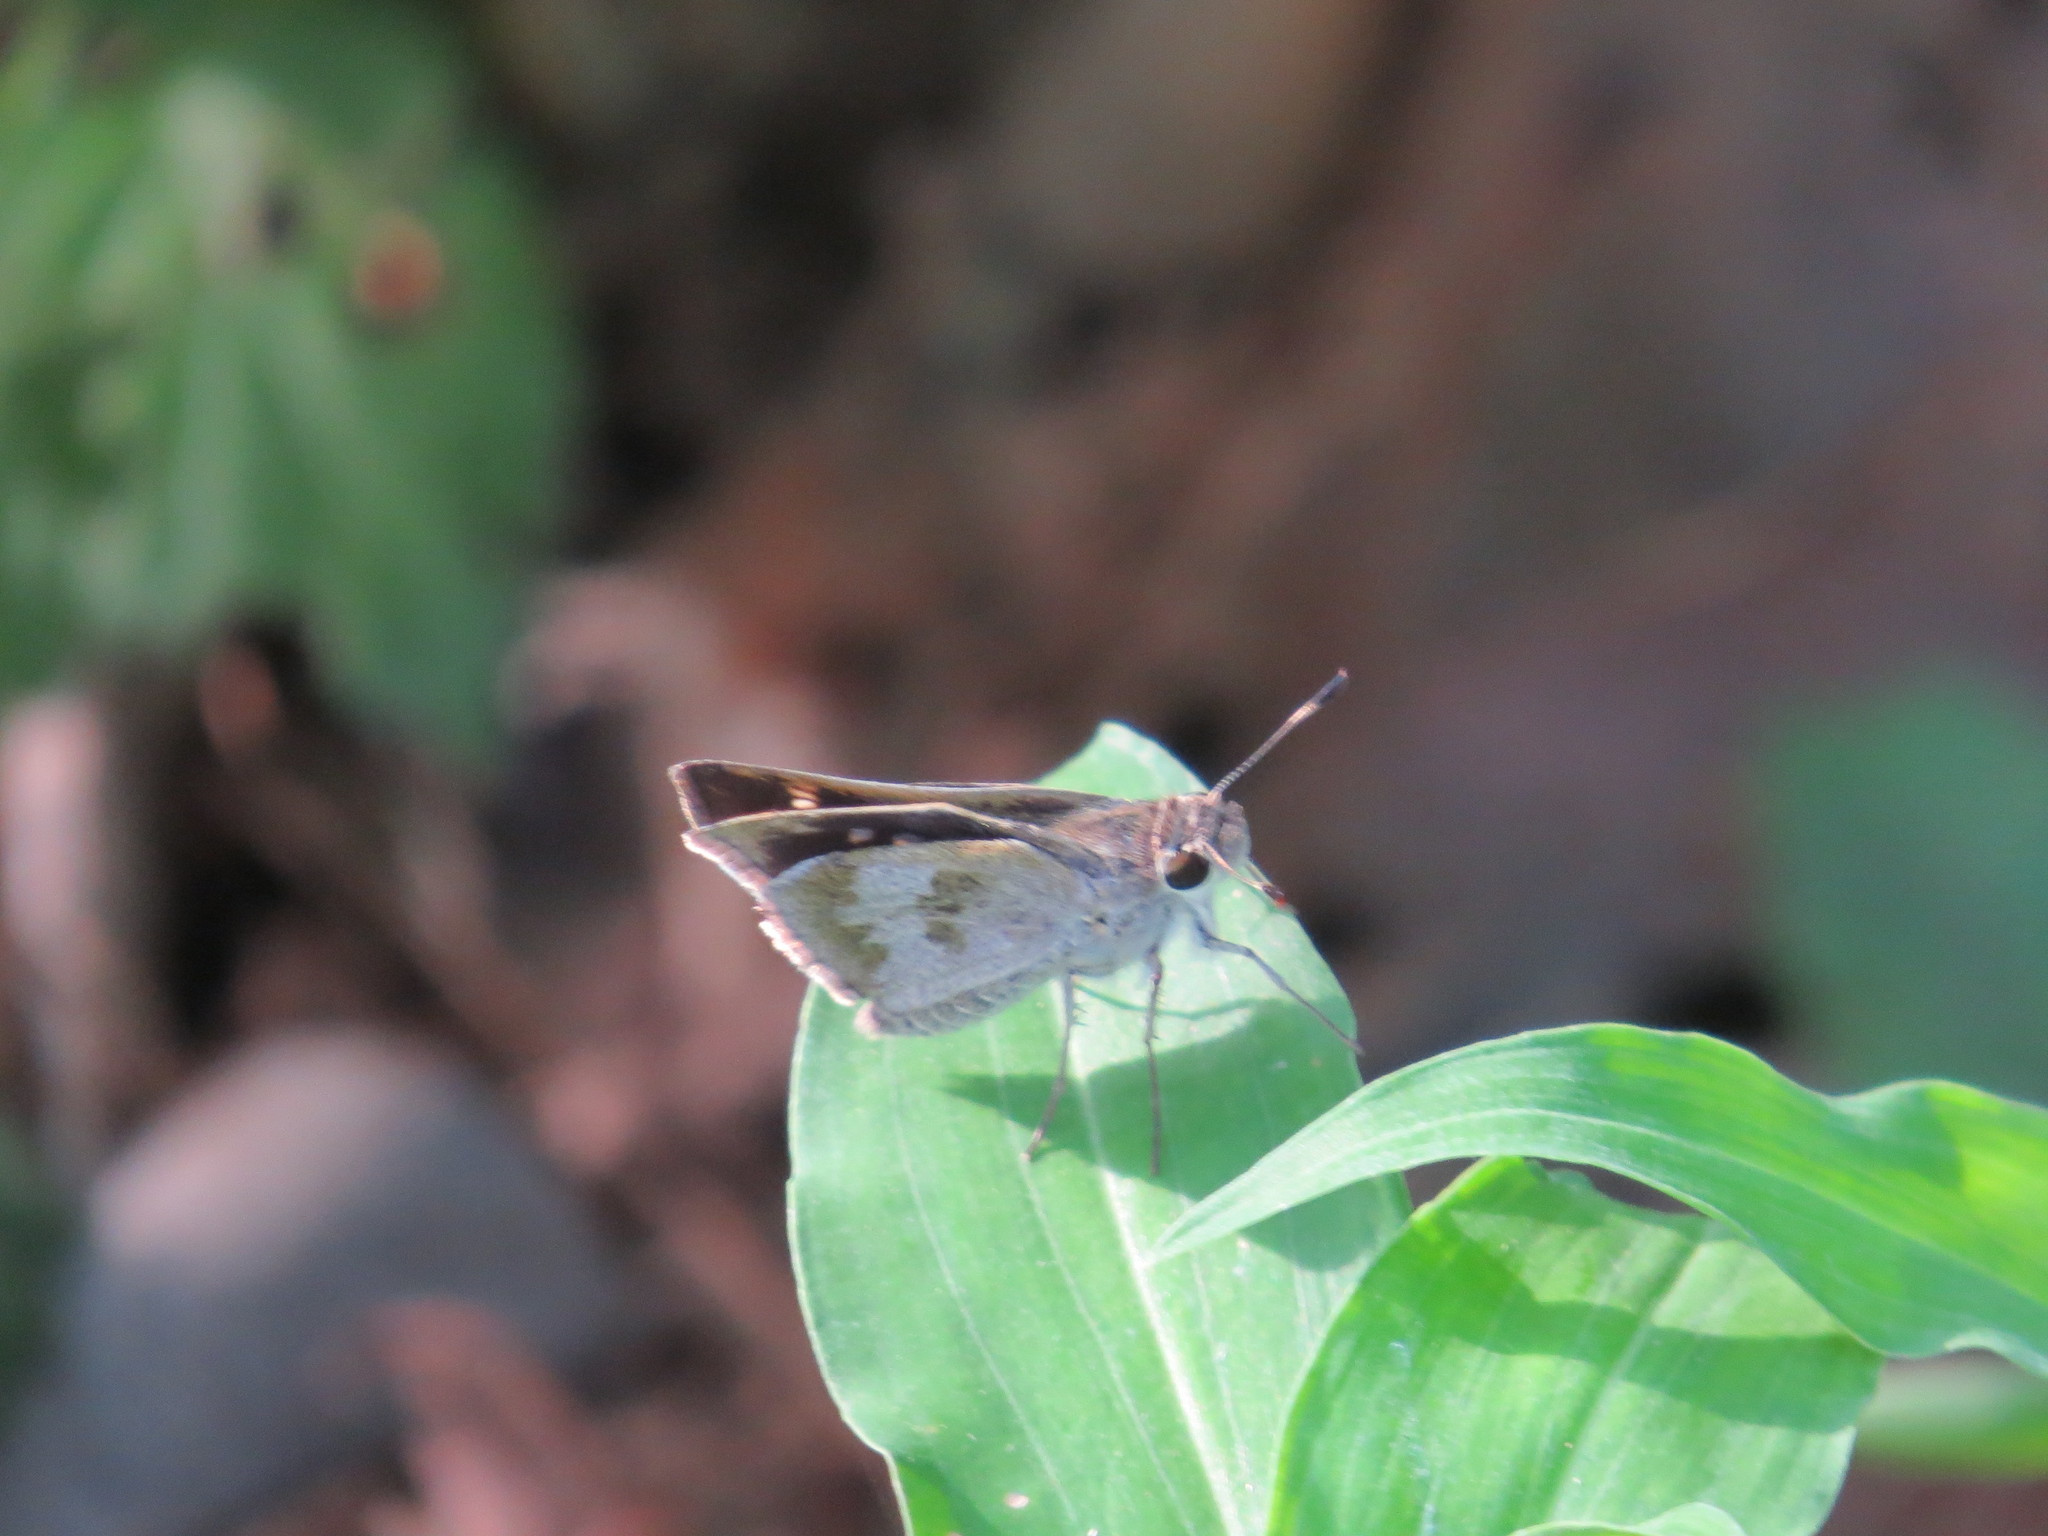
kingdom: Animalia
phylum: Arthropoda
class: Insecta
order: Lepidoptera
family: Hesperiidae
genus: Polites
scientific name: Polites vibex
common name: Whirlabout
